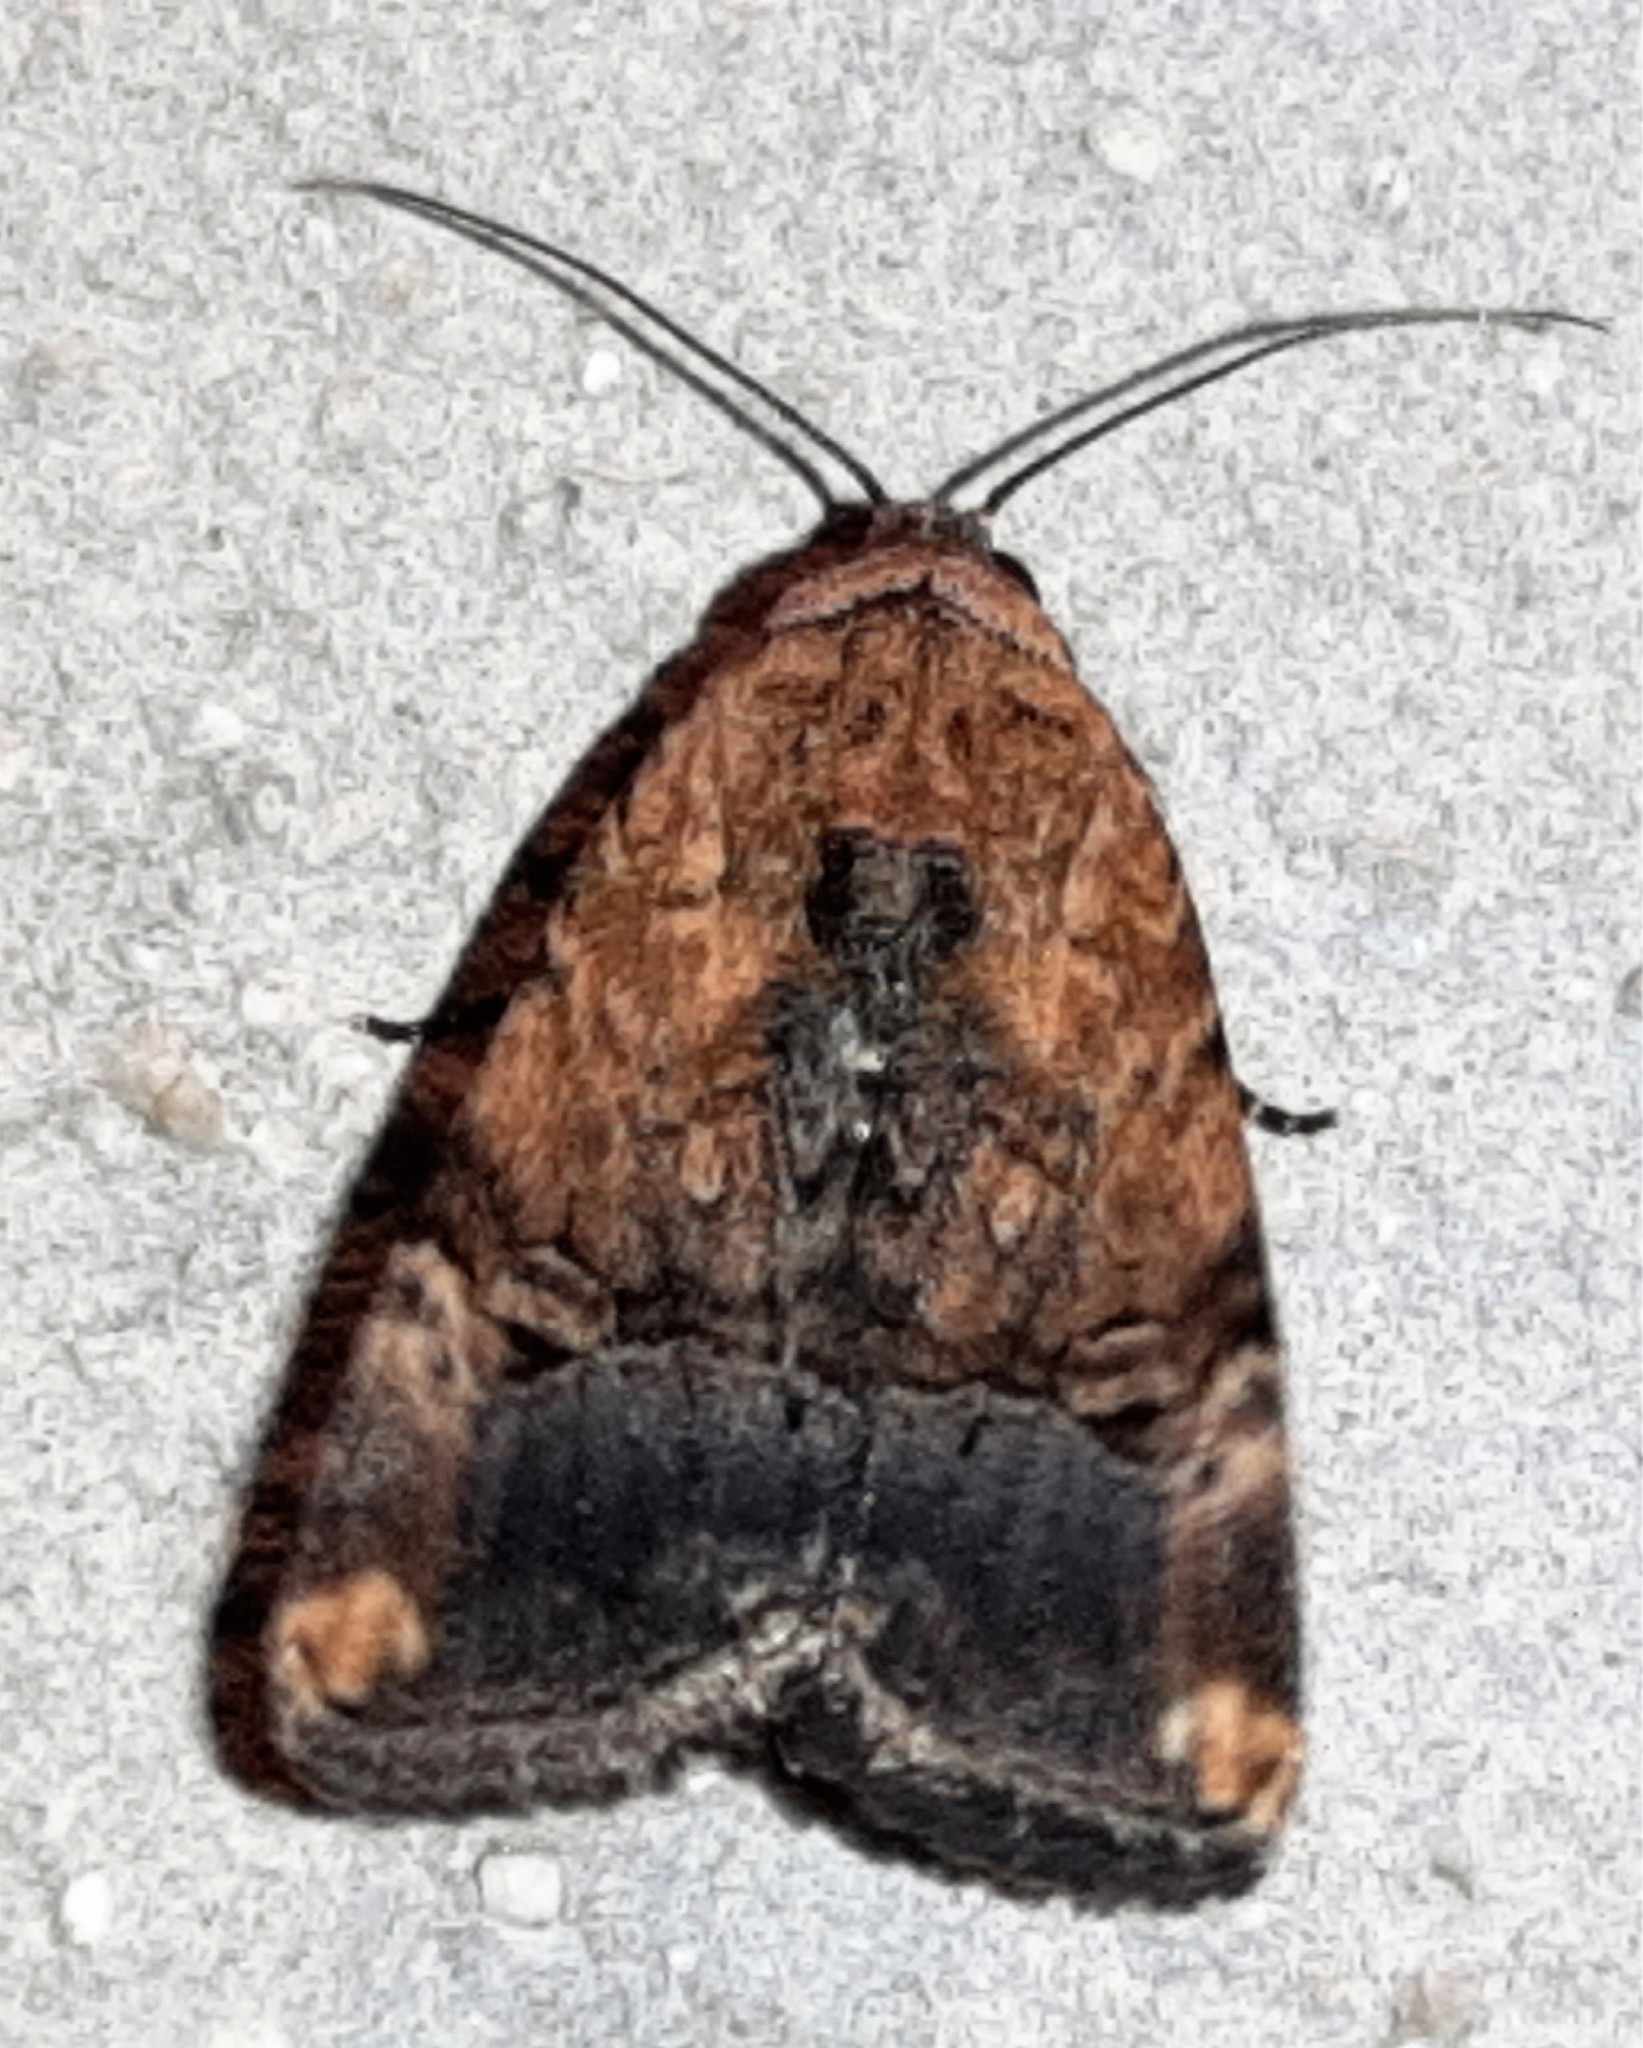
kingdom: Animalia
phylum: Arthropoda
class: Insecta
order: Lepidoptera
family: Noctuidae
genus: Elaphria
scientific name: Elaphria agrotina
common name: Agrotina midget
